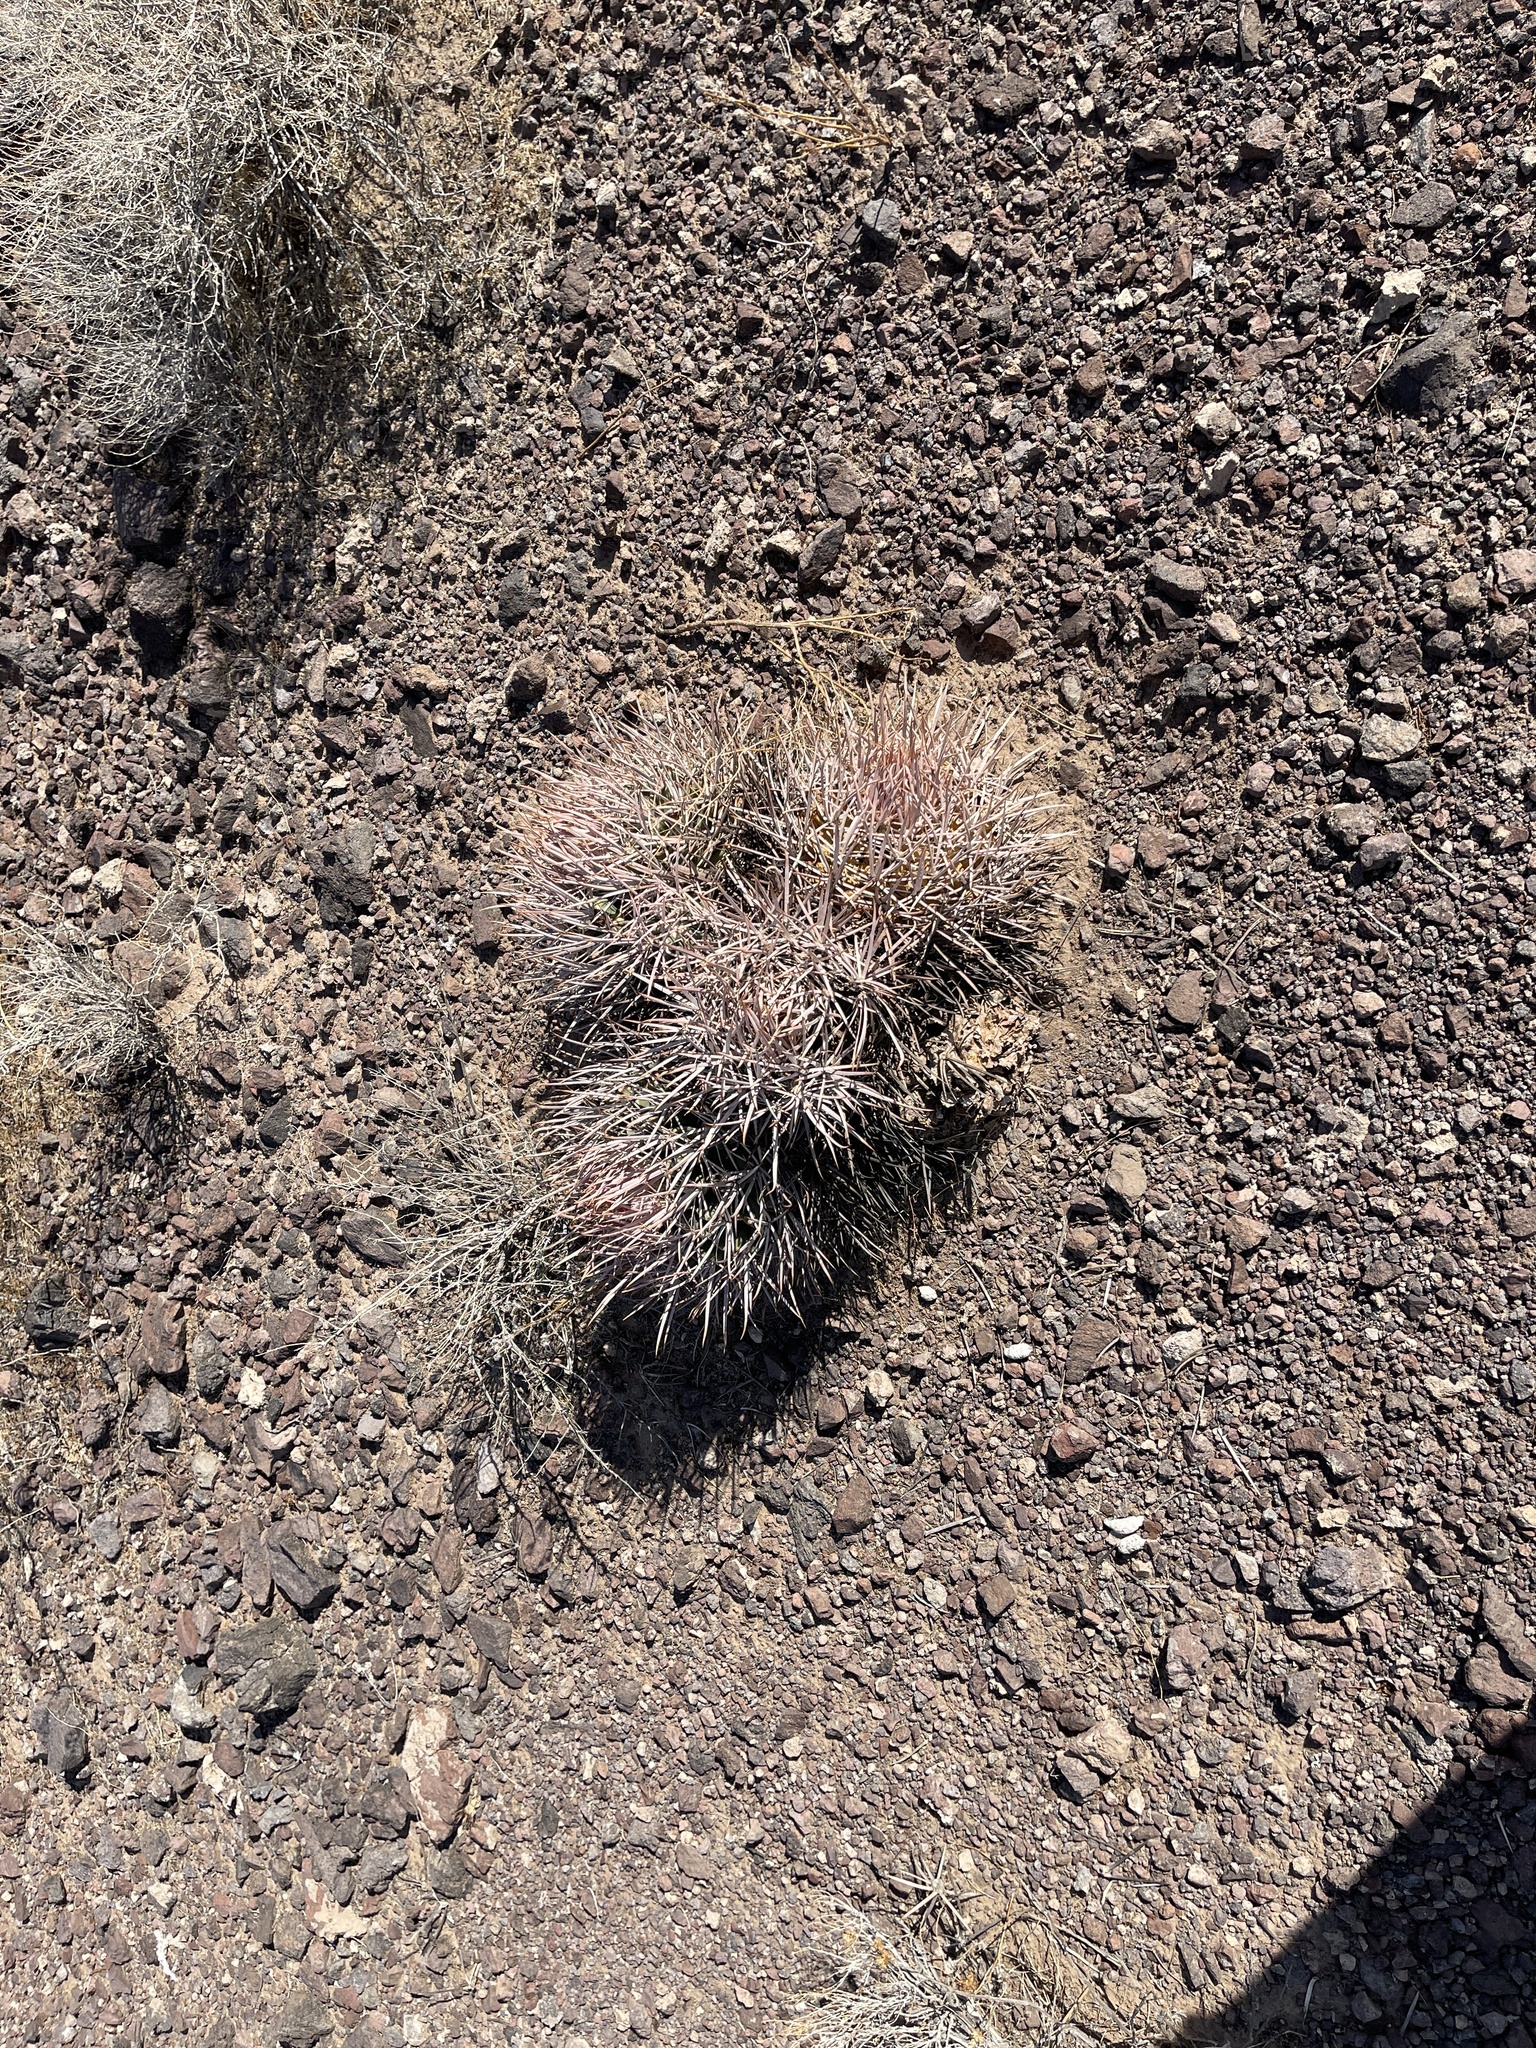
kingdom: Plantae
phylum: Tracheophyta
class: Magnoliopsida
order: Caryophyllales
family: Cactaceae
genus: Echinocactus
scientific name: Echinocactus polycephalus
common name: Cottontop cactus
